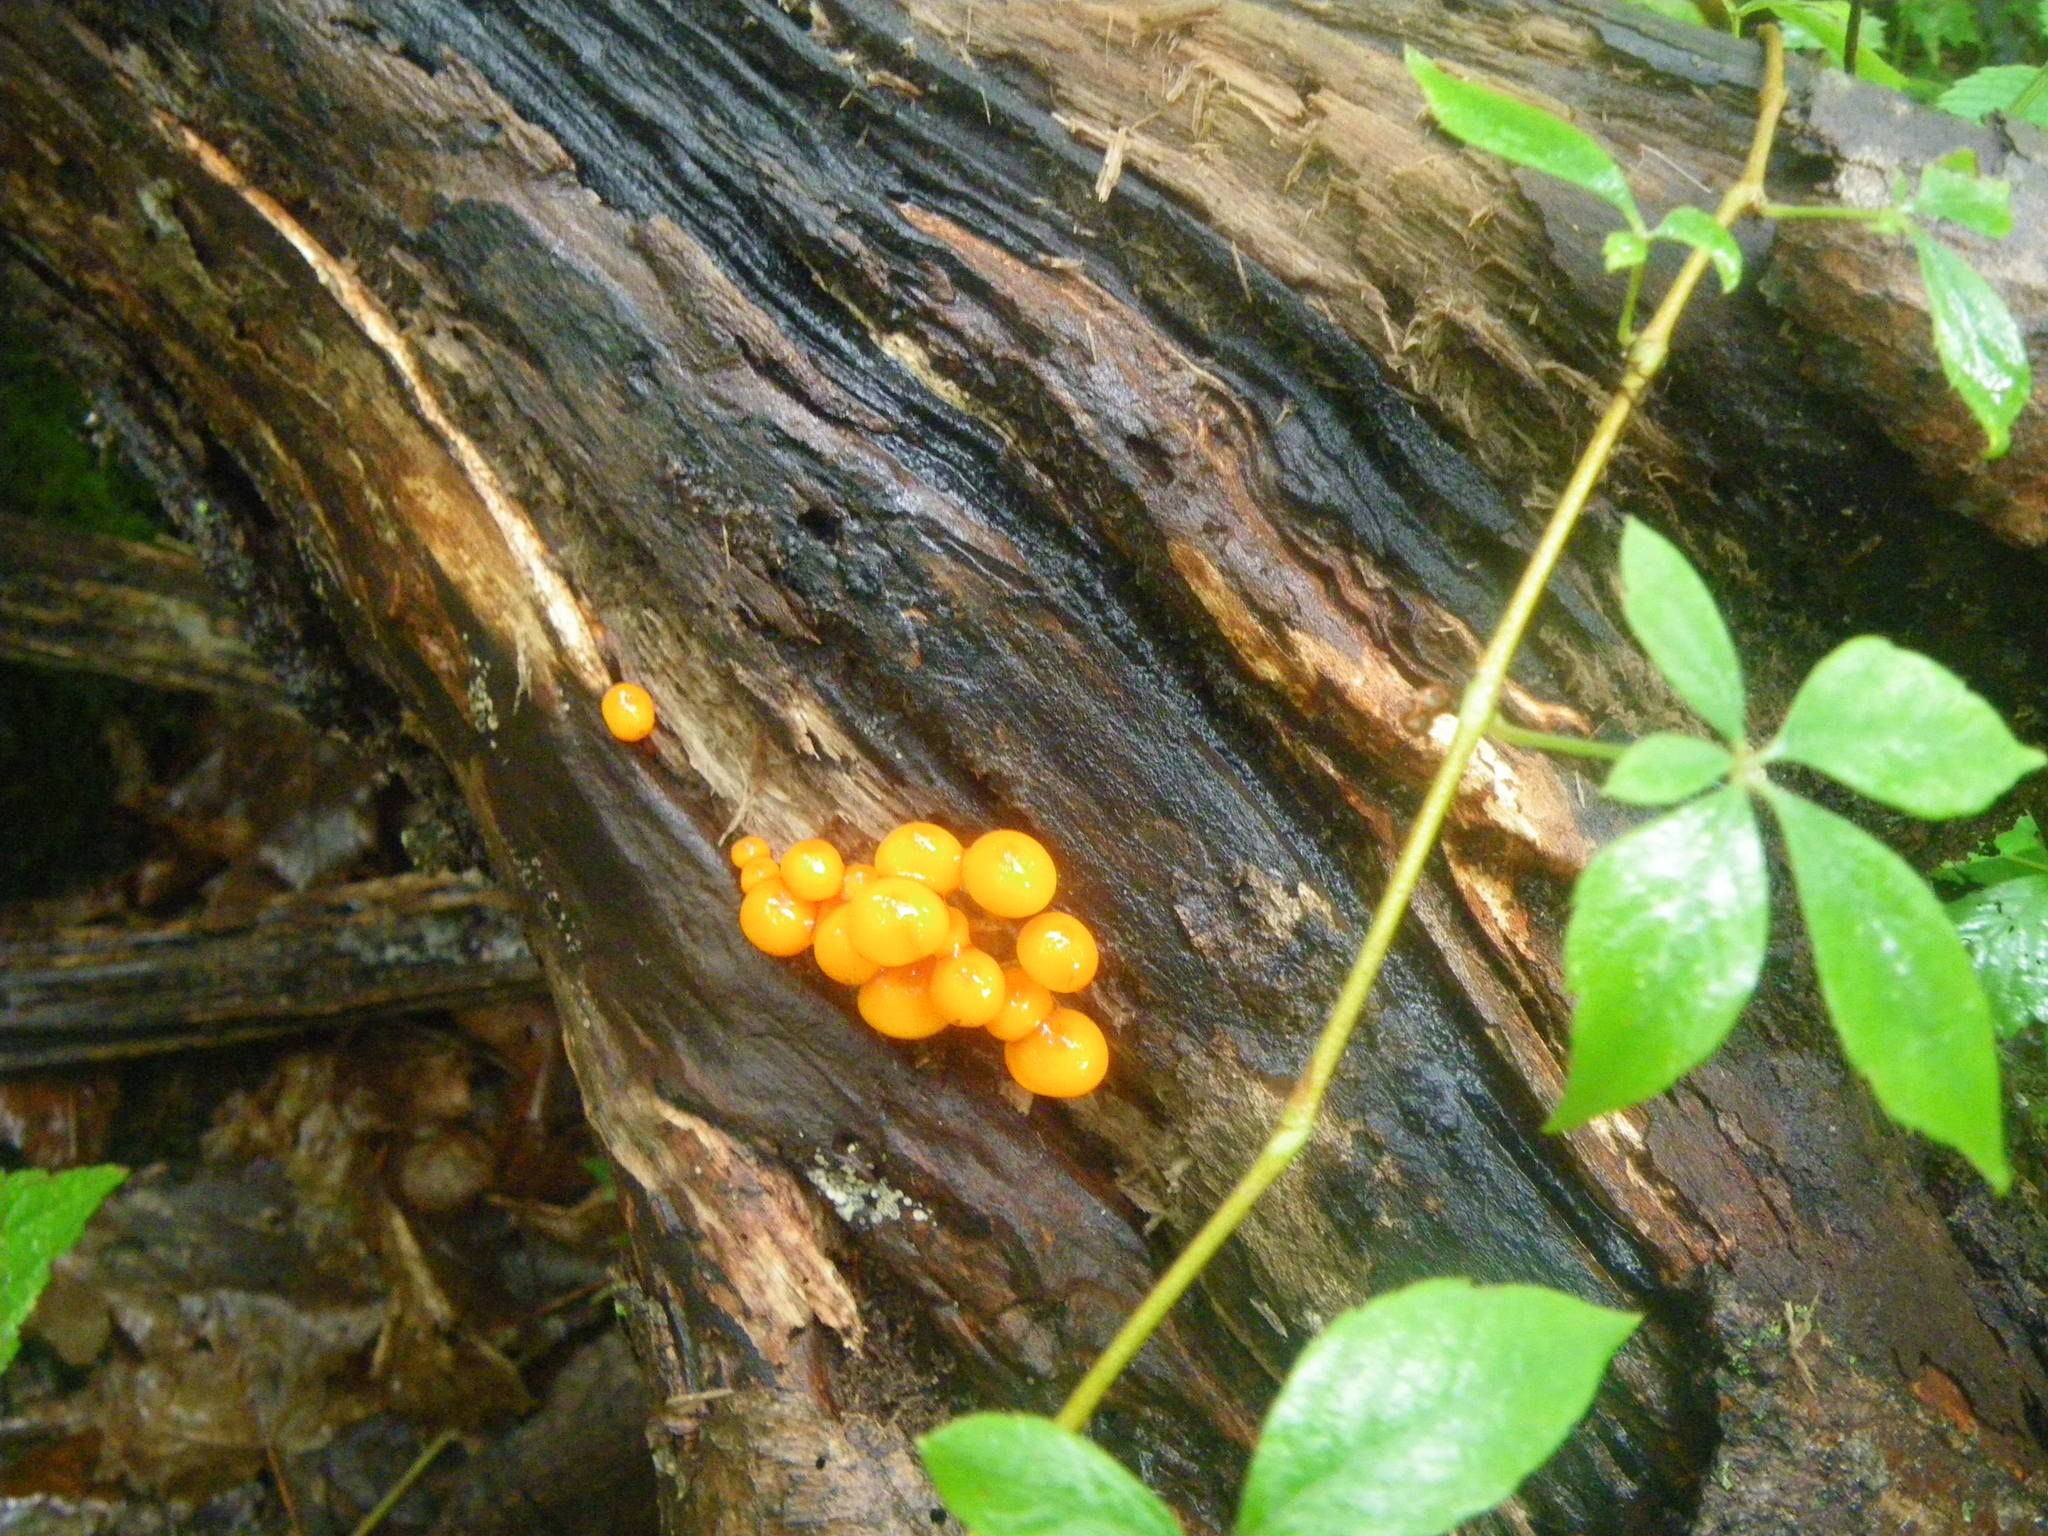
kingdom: Fungi
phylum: Basidiomycota
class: Agaricomycetes
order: Agaricales
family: Mycenaceae
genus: Mycena
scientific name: Mycena leaiana
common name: Orange mycena
